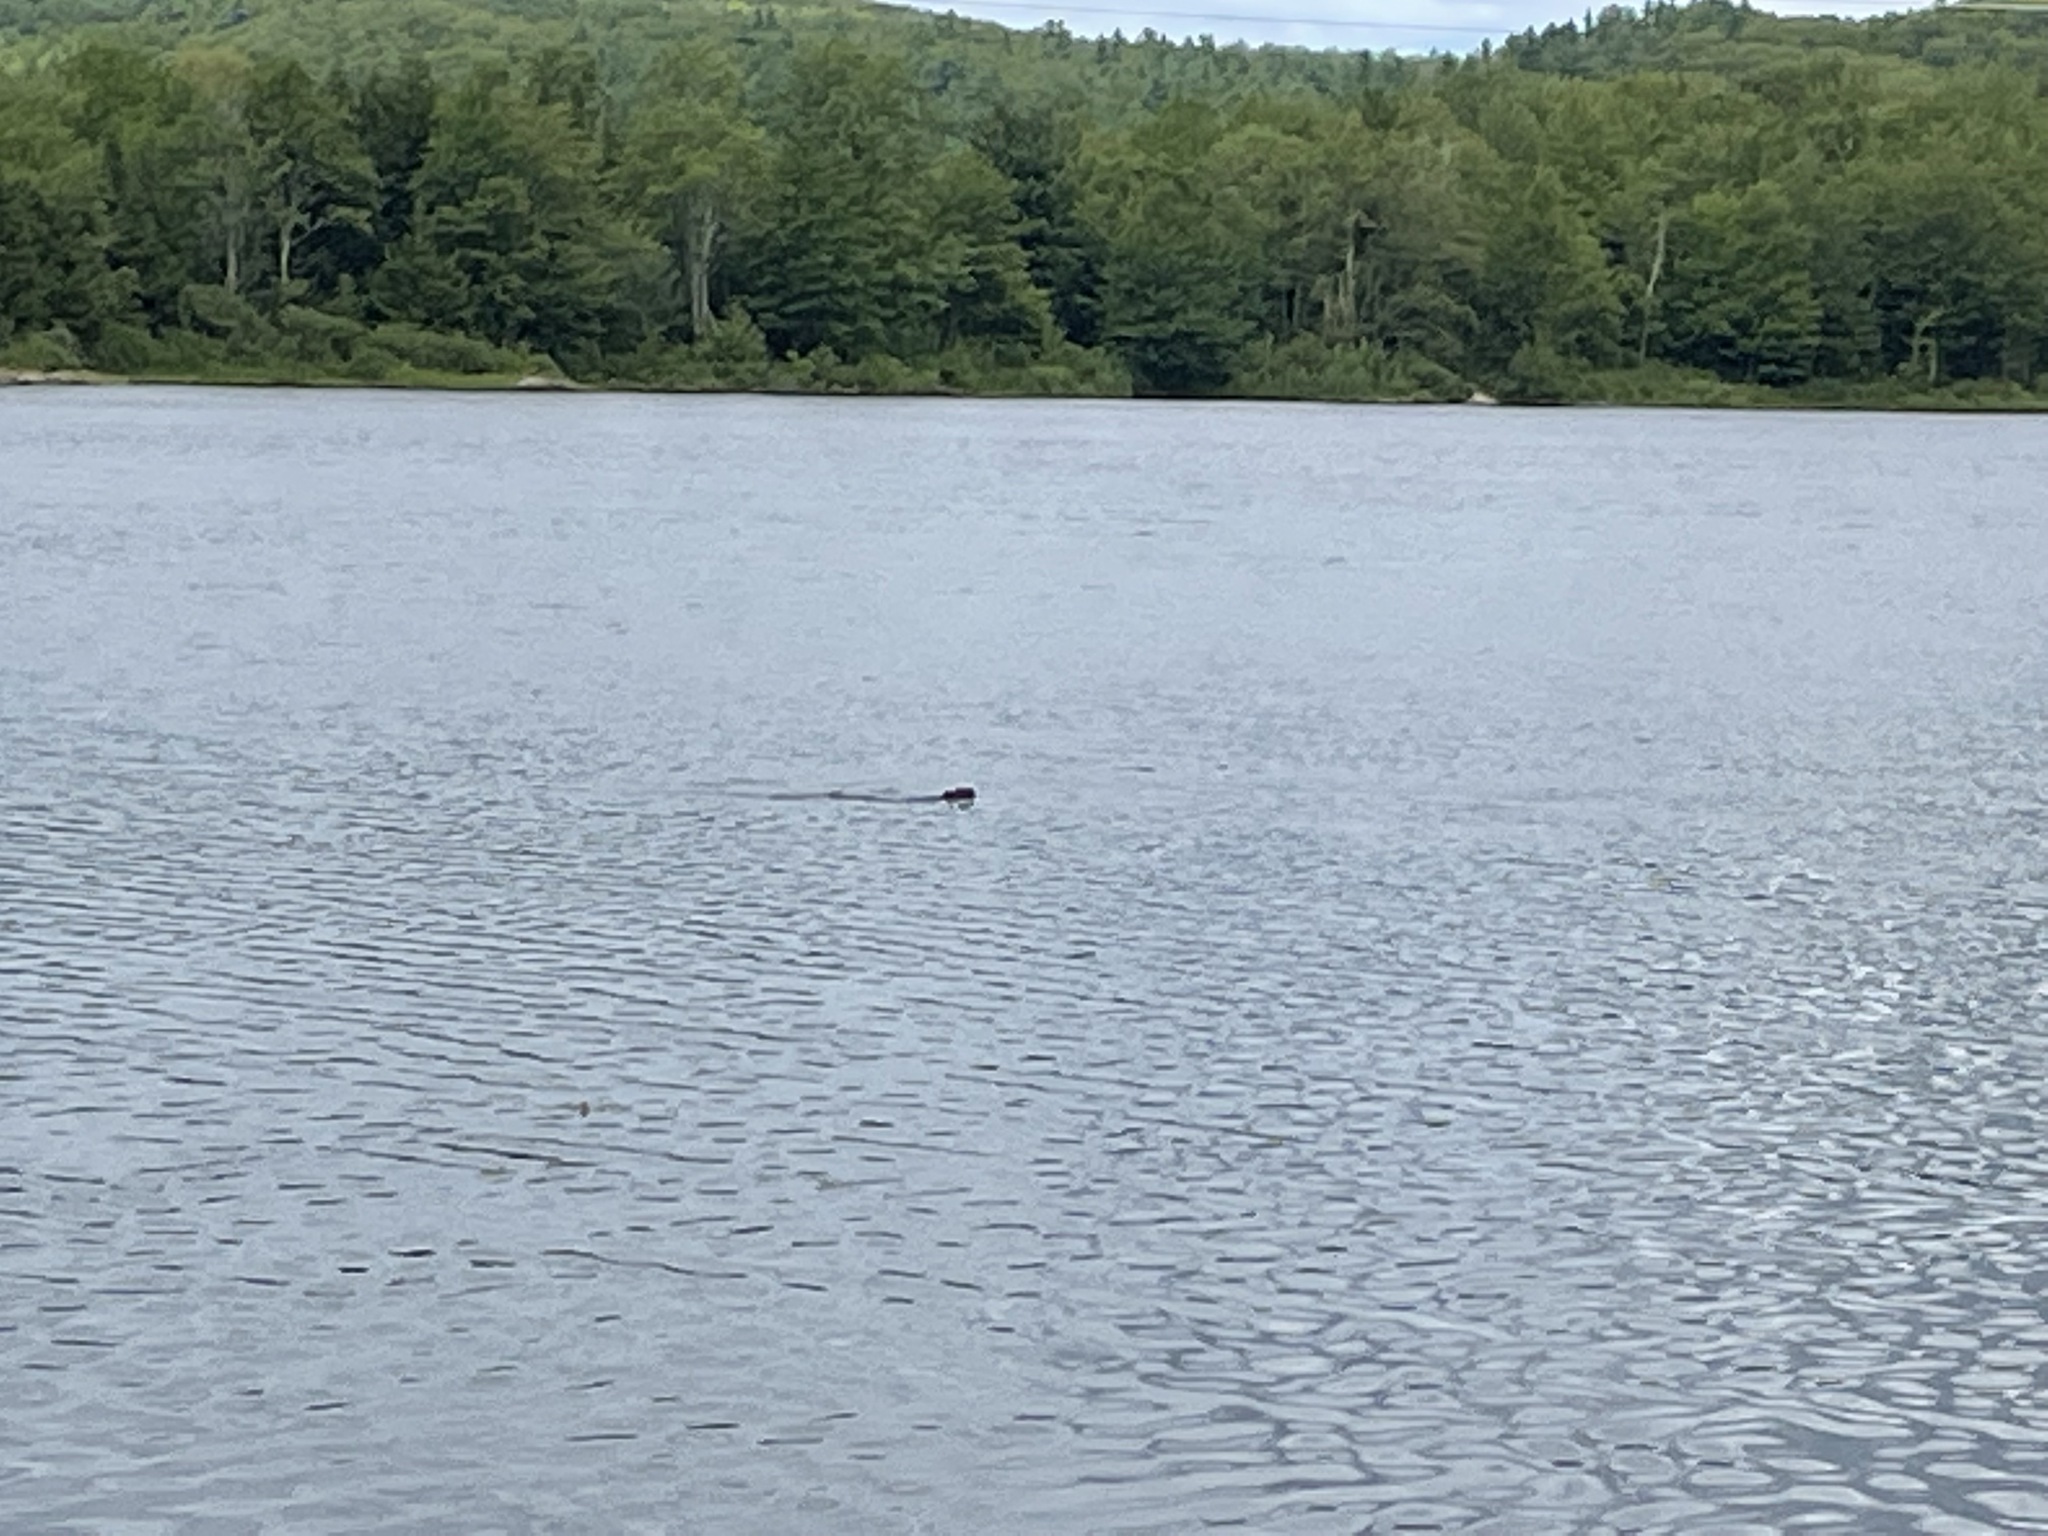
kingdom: Animalia
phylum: Chordata
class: Mammalia
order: Rodentia
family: Castoridae
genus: Castor
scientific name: Castor canadensis
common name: American beaver
